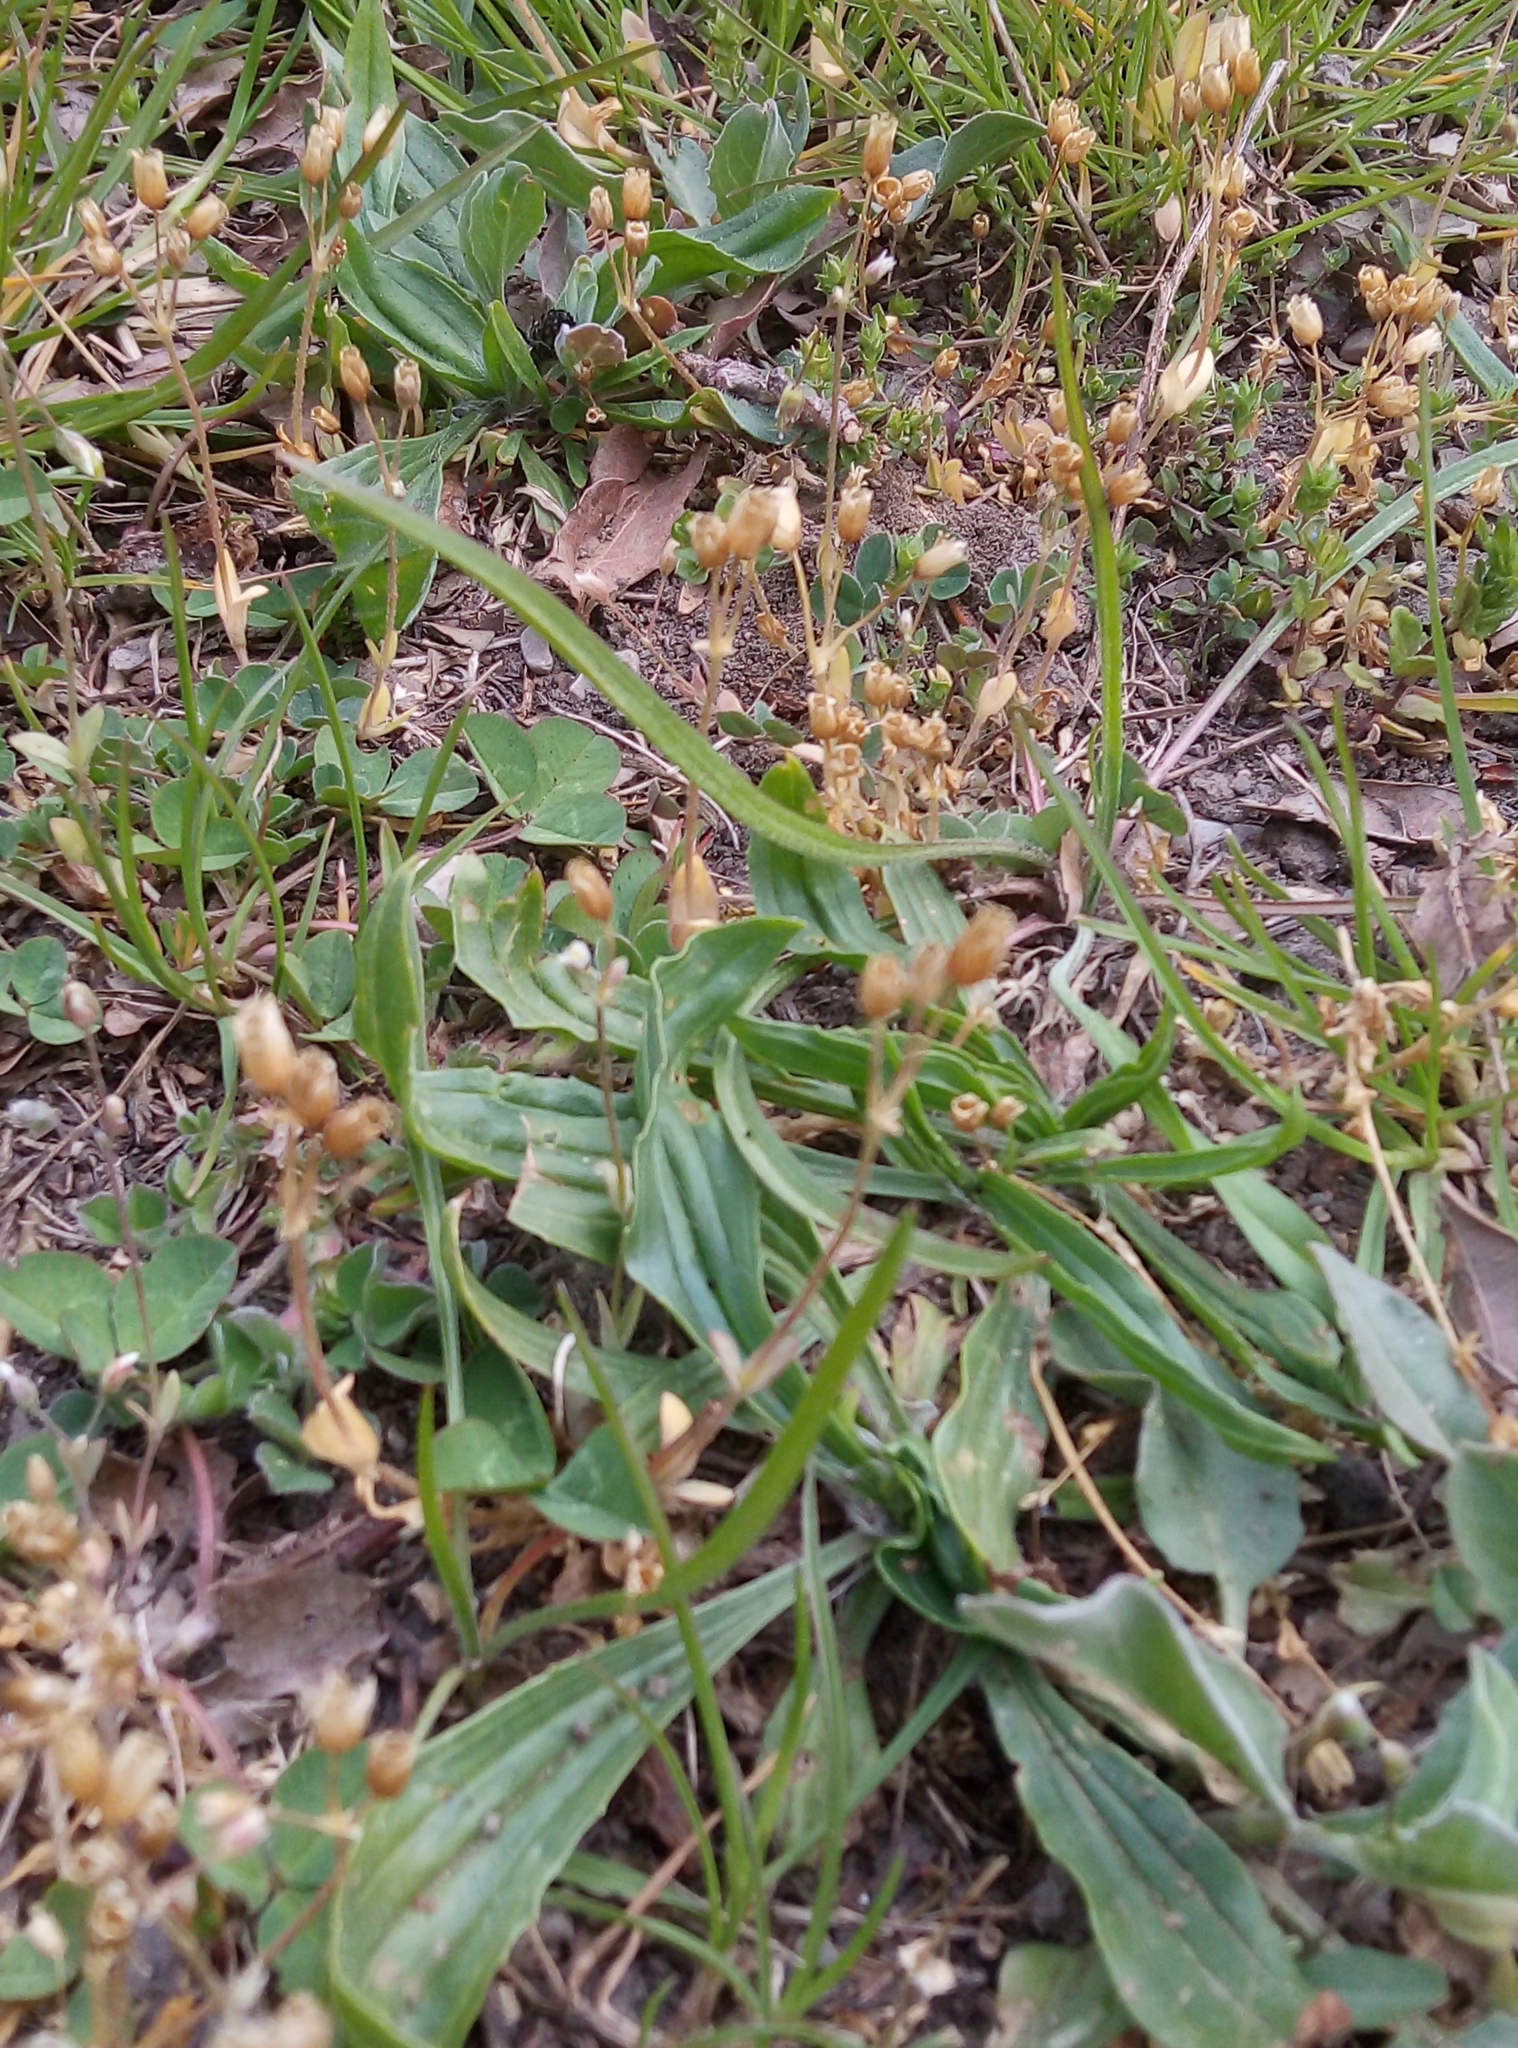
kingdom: Plantae
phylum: Tracheophyta
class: Magnoliopsida
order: Caryophyllales
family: Caryophyllaceae
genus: Holosteum
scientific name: Holosteum umbellatum
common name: Jagged chickweed
